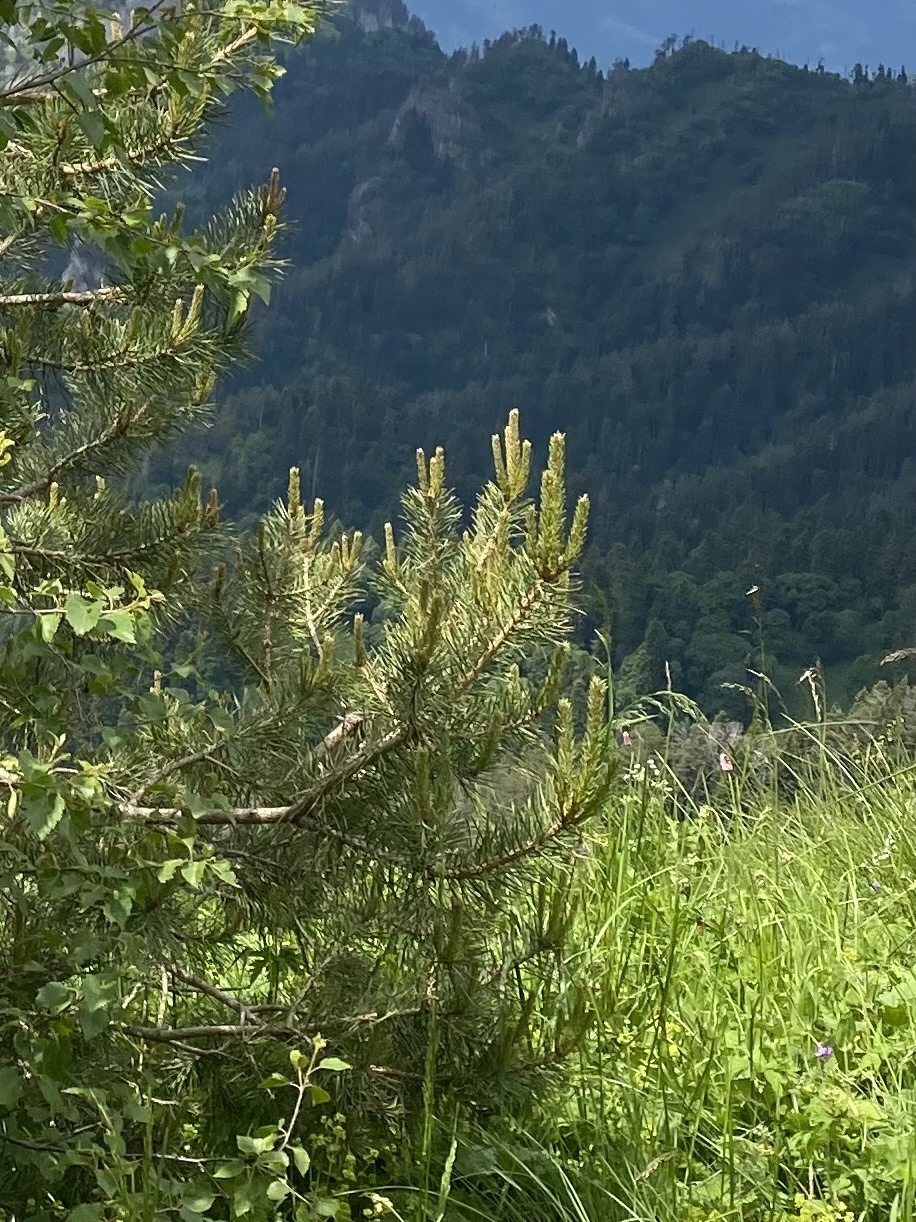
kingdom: Plantae
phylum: Tracheophyta
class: Pinopsida
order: Pinales
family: Pinaceae
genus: Pinus
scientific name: Pinus sylvestris
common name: Scots pine
